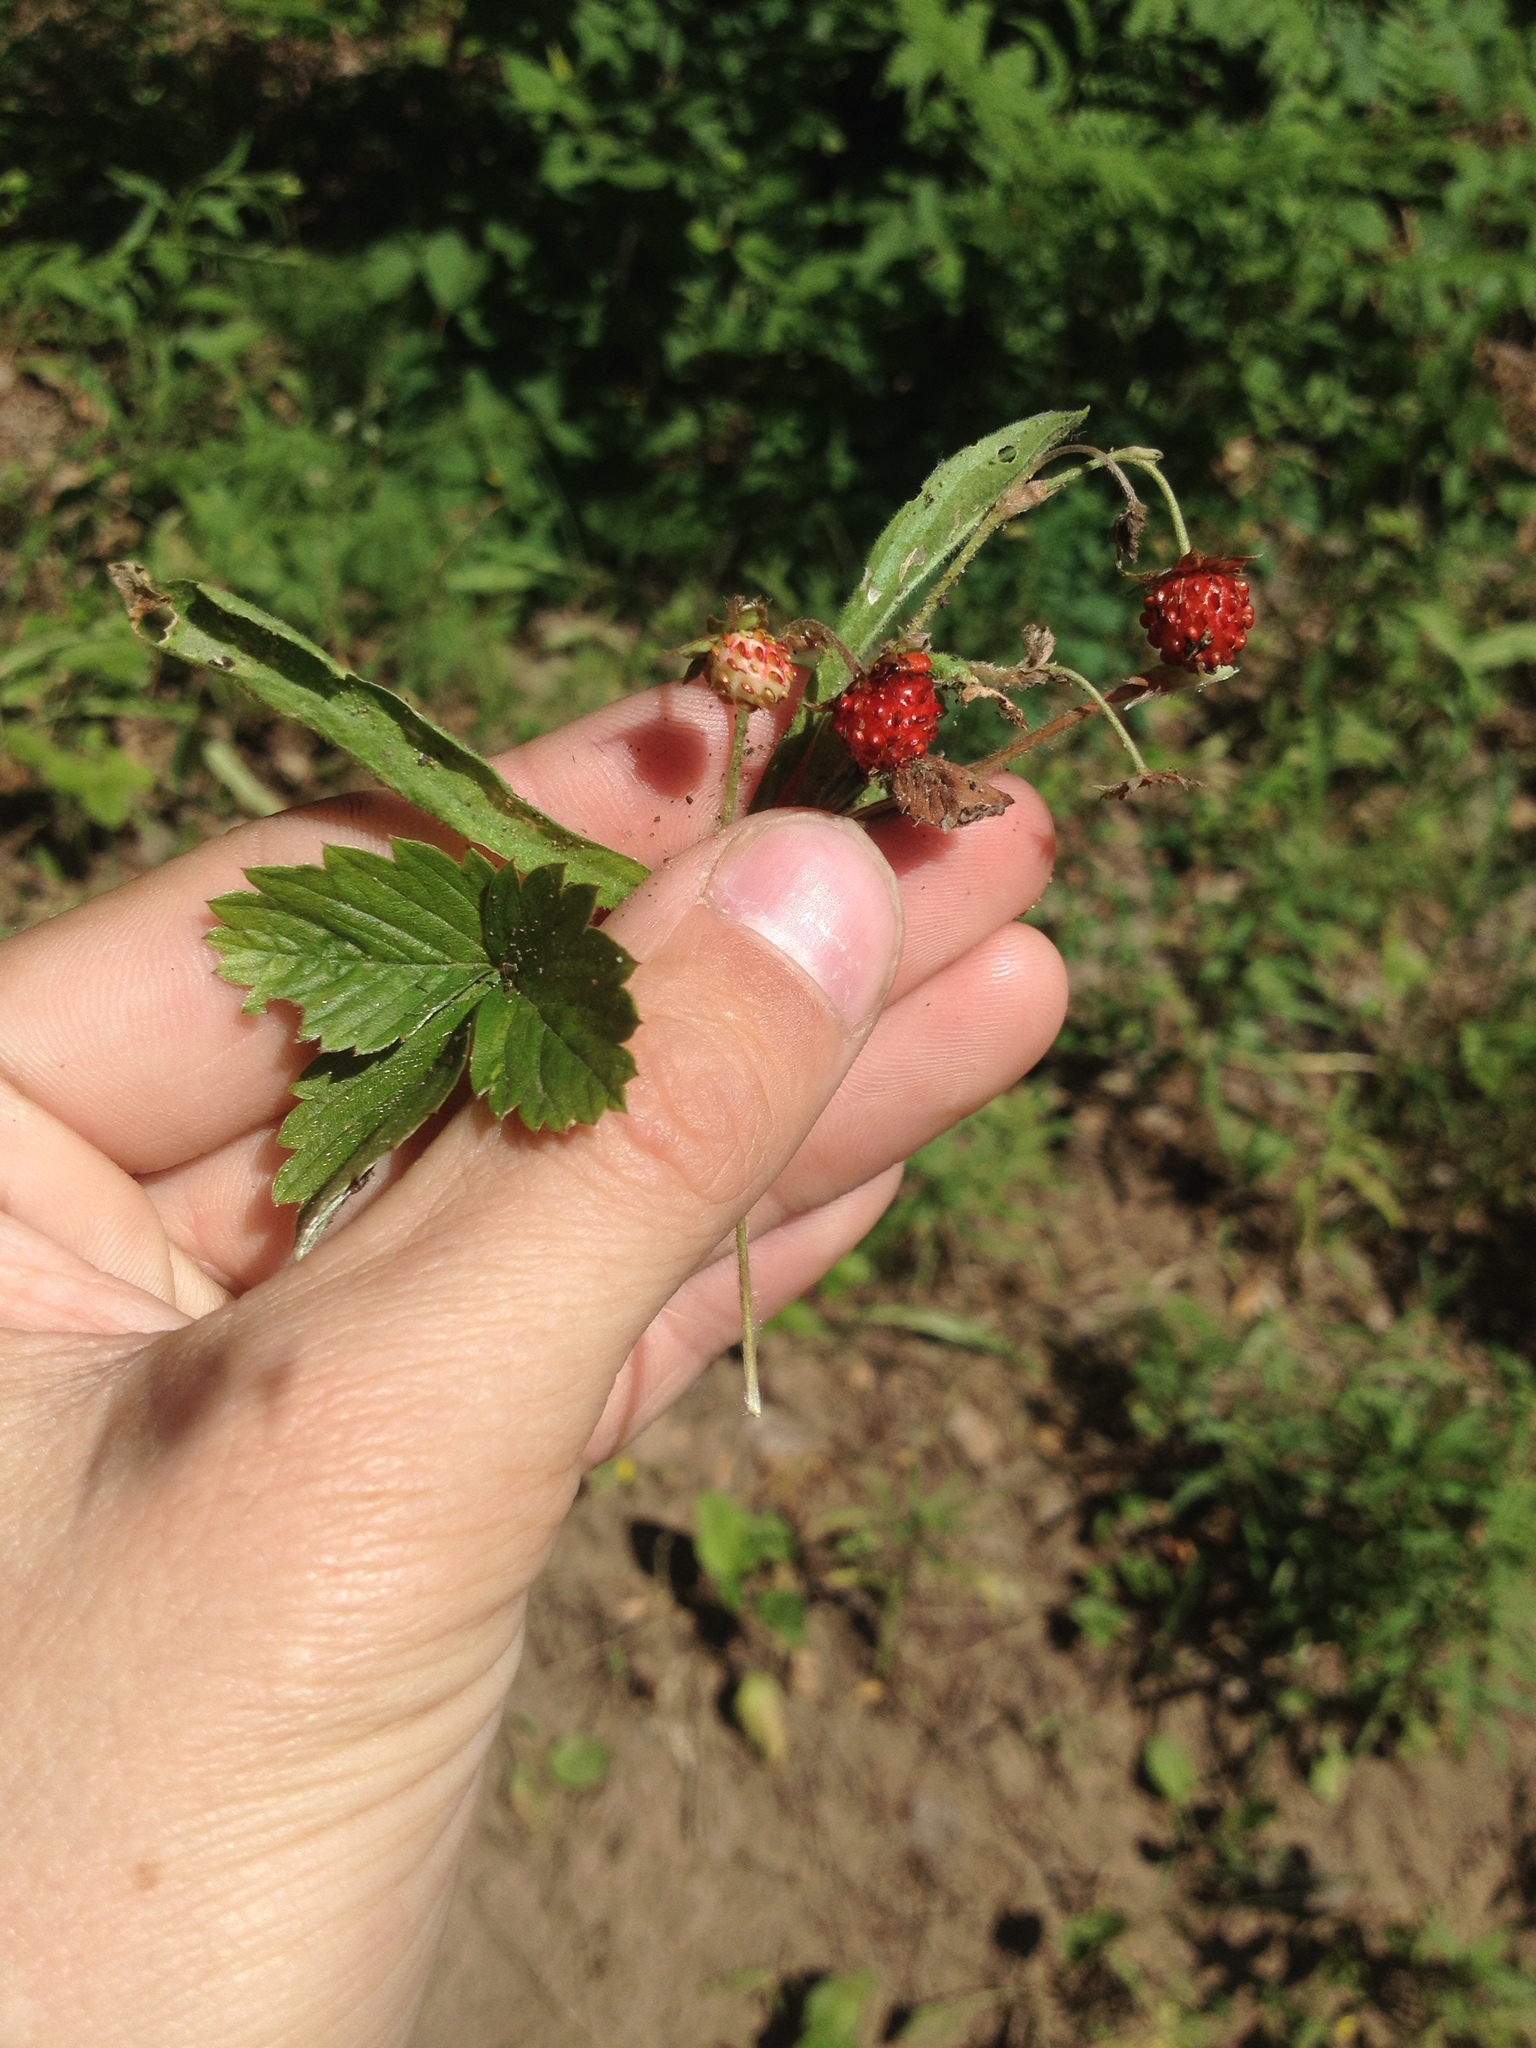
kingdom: Plantae
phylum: Tracheophyta
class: Magnoliopsida
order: Rosales
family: Rosaceae
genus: Fragaria
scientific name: Fragaria vesca
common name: Wild strawberry
